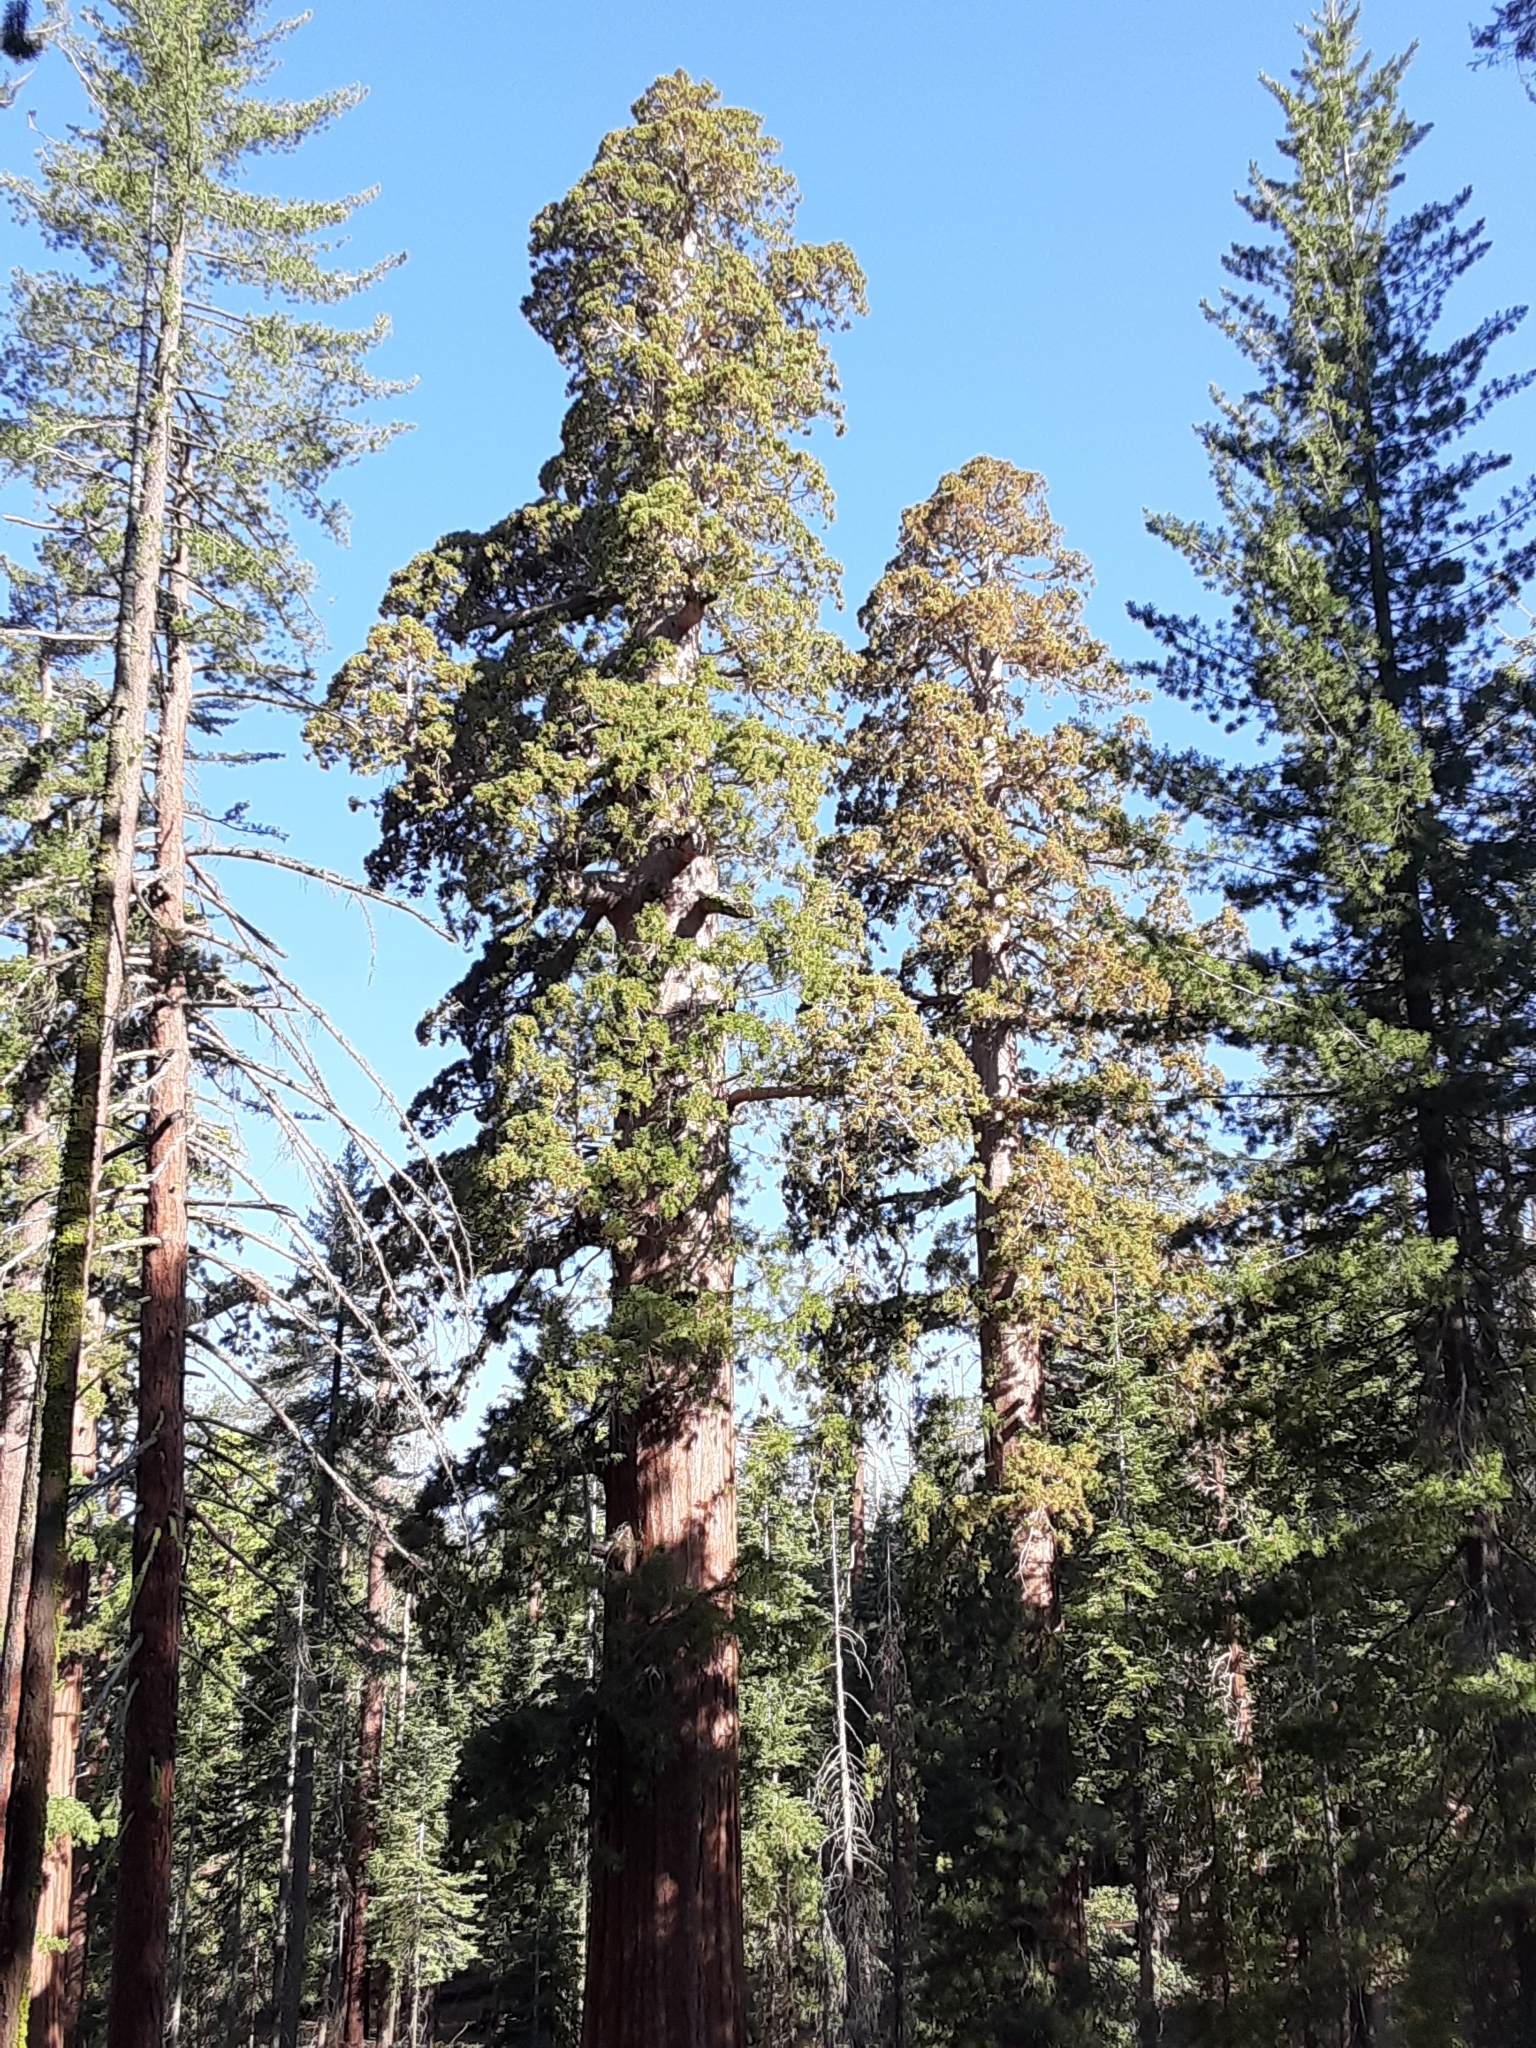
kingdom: Plantae
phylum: Tracheophyta
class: Pinopsida
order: Pinales
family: Cupressaceae
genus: Sequoiadendron
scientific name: Sequoiadendron giganteum
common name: Wellingtonia
